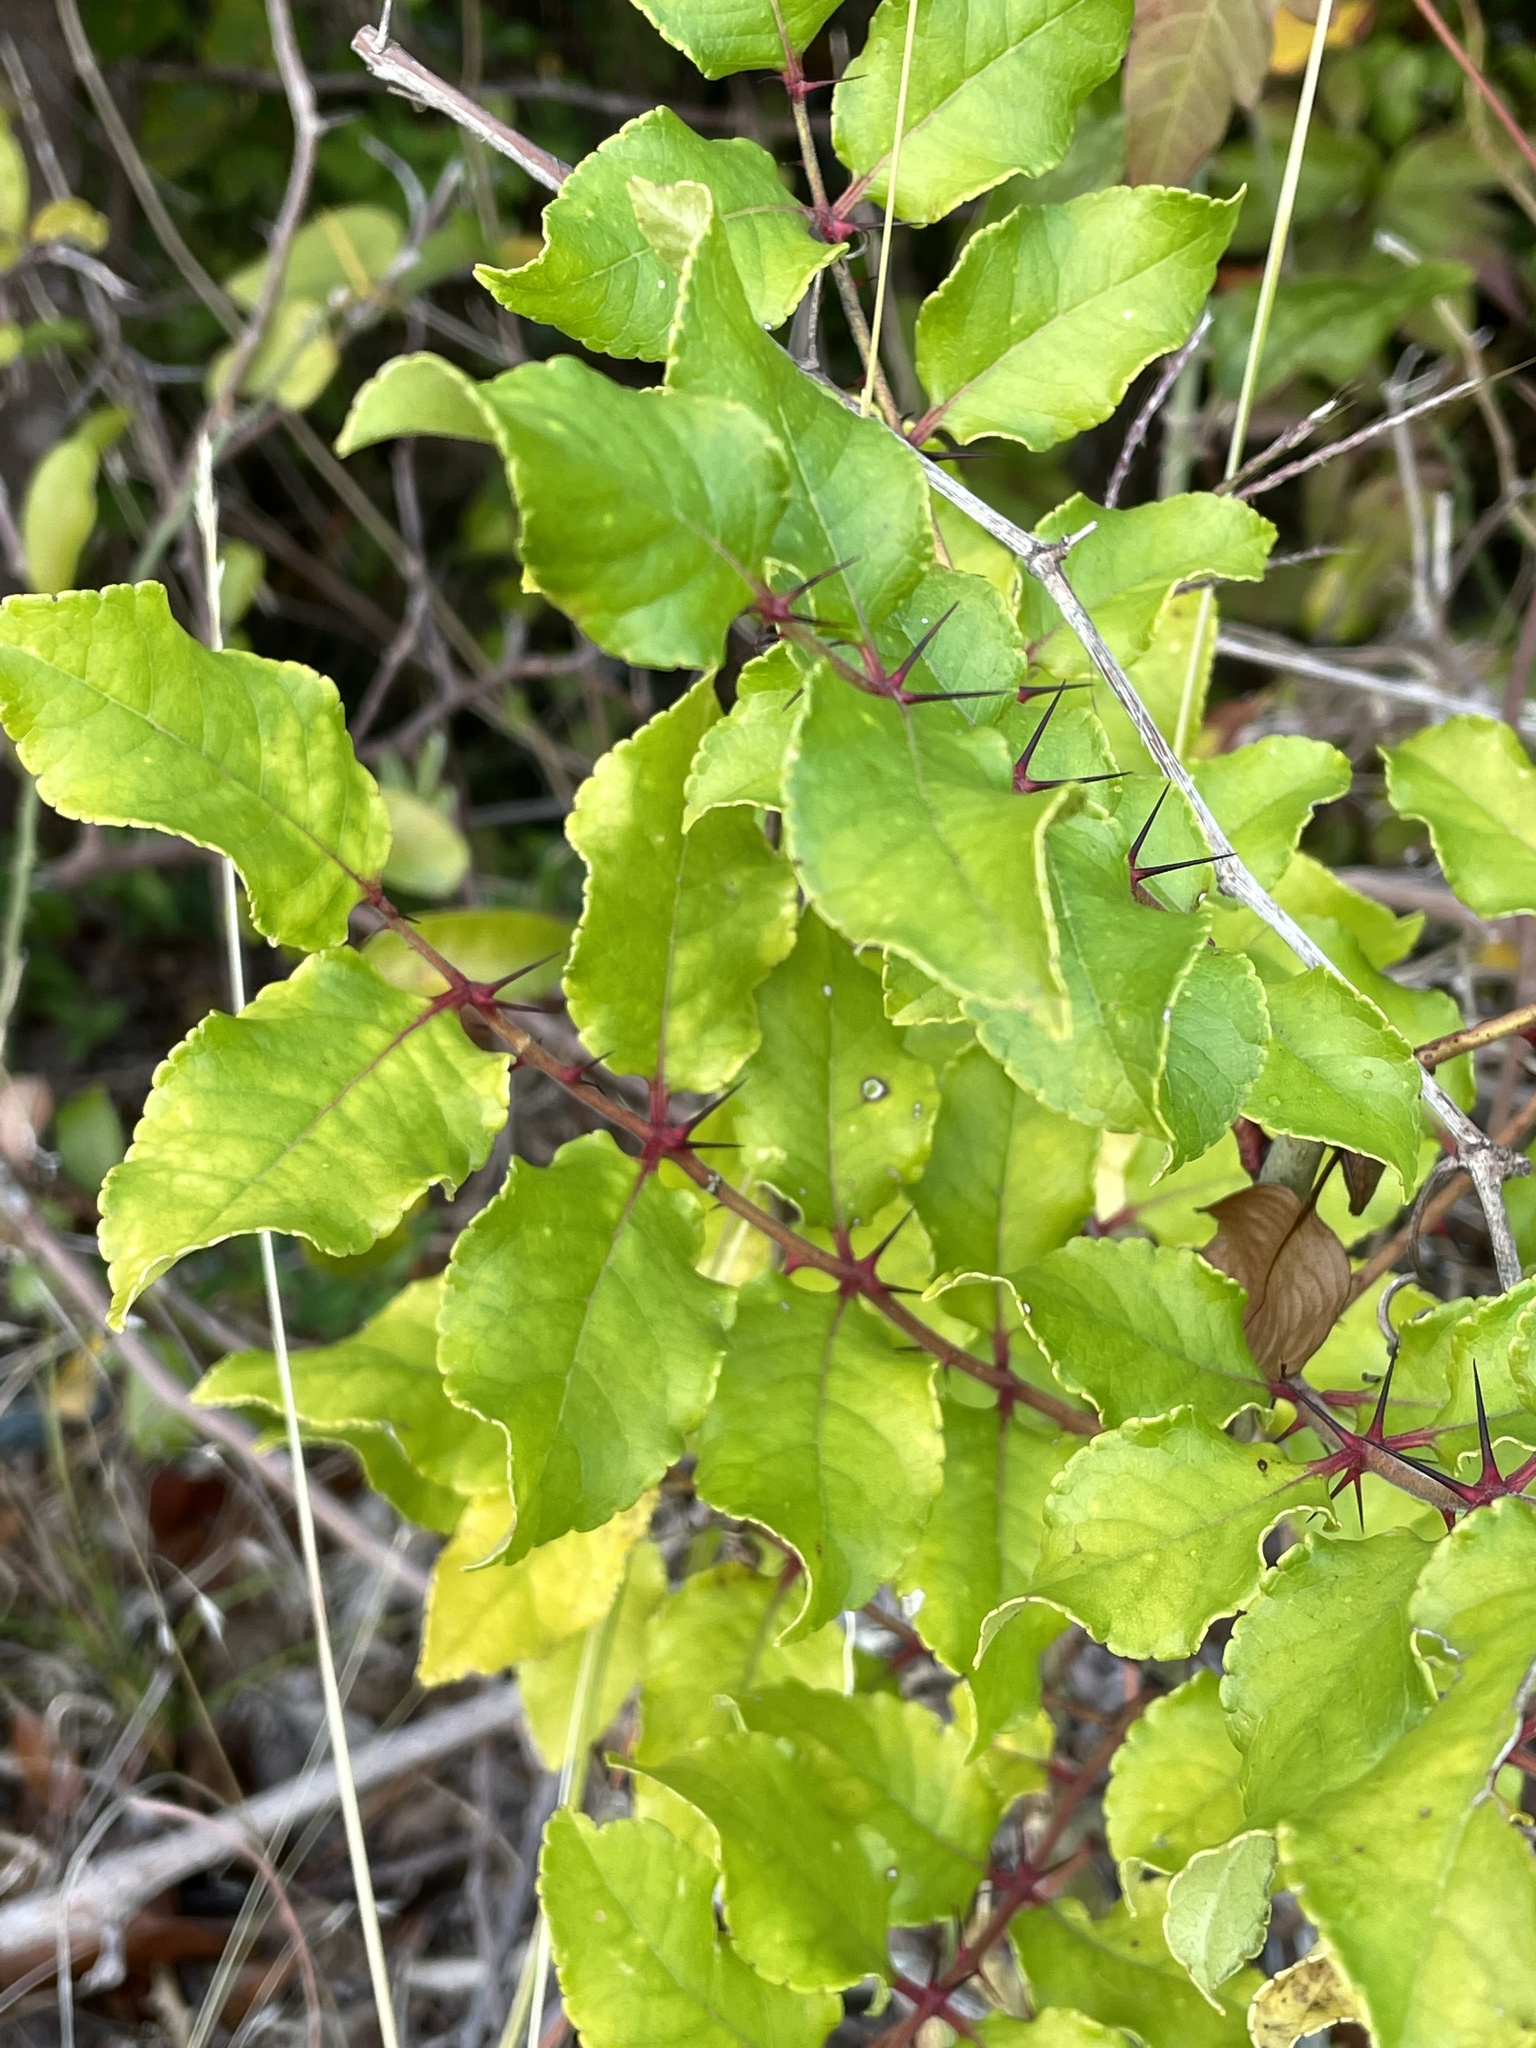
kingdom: Plantae
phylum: Tracheophyta
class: Magnoliopsida
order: Sapindales
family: Rutaceae
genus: Zanthoxylum
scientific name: Zanthoxylum clava-herculis
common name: Hercules'-club
